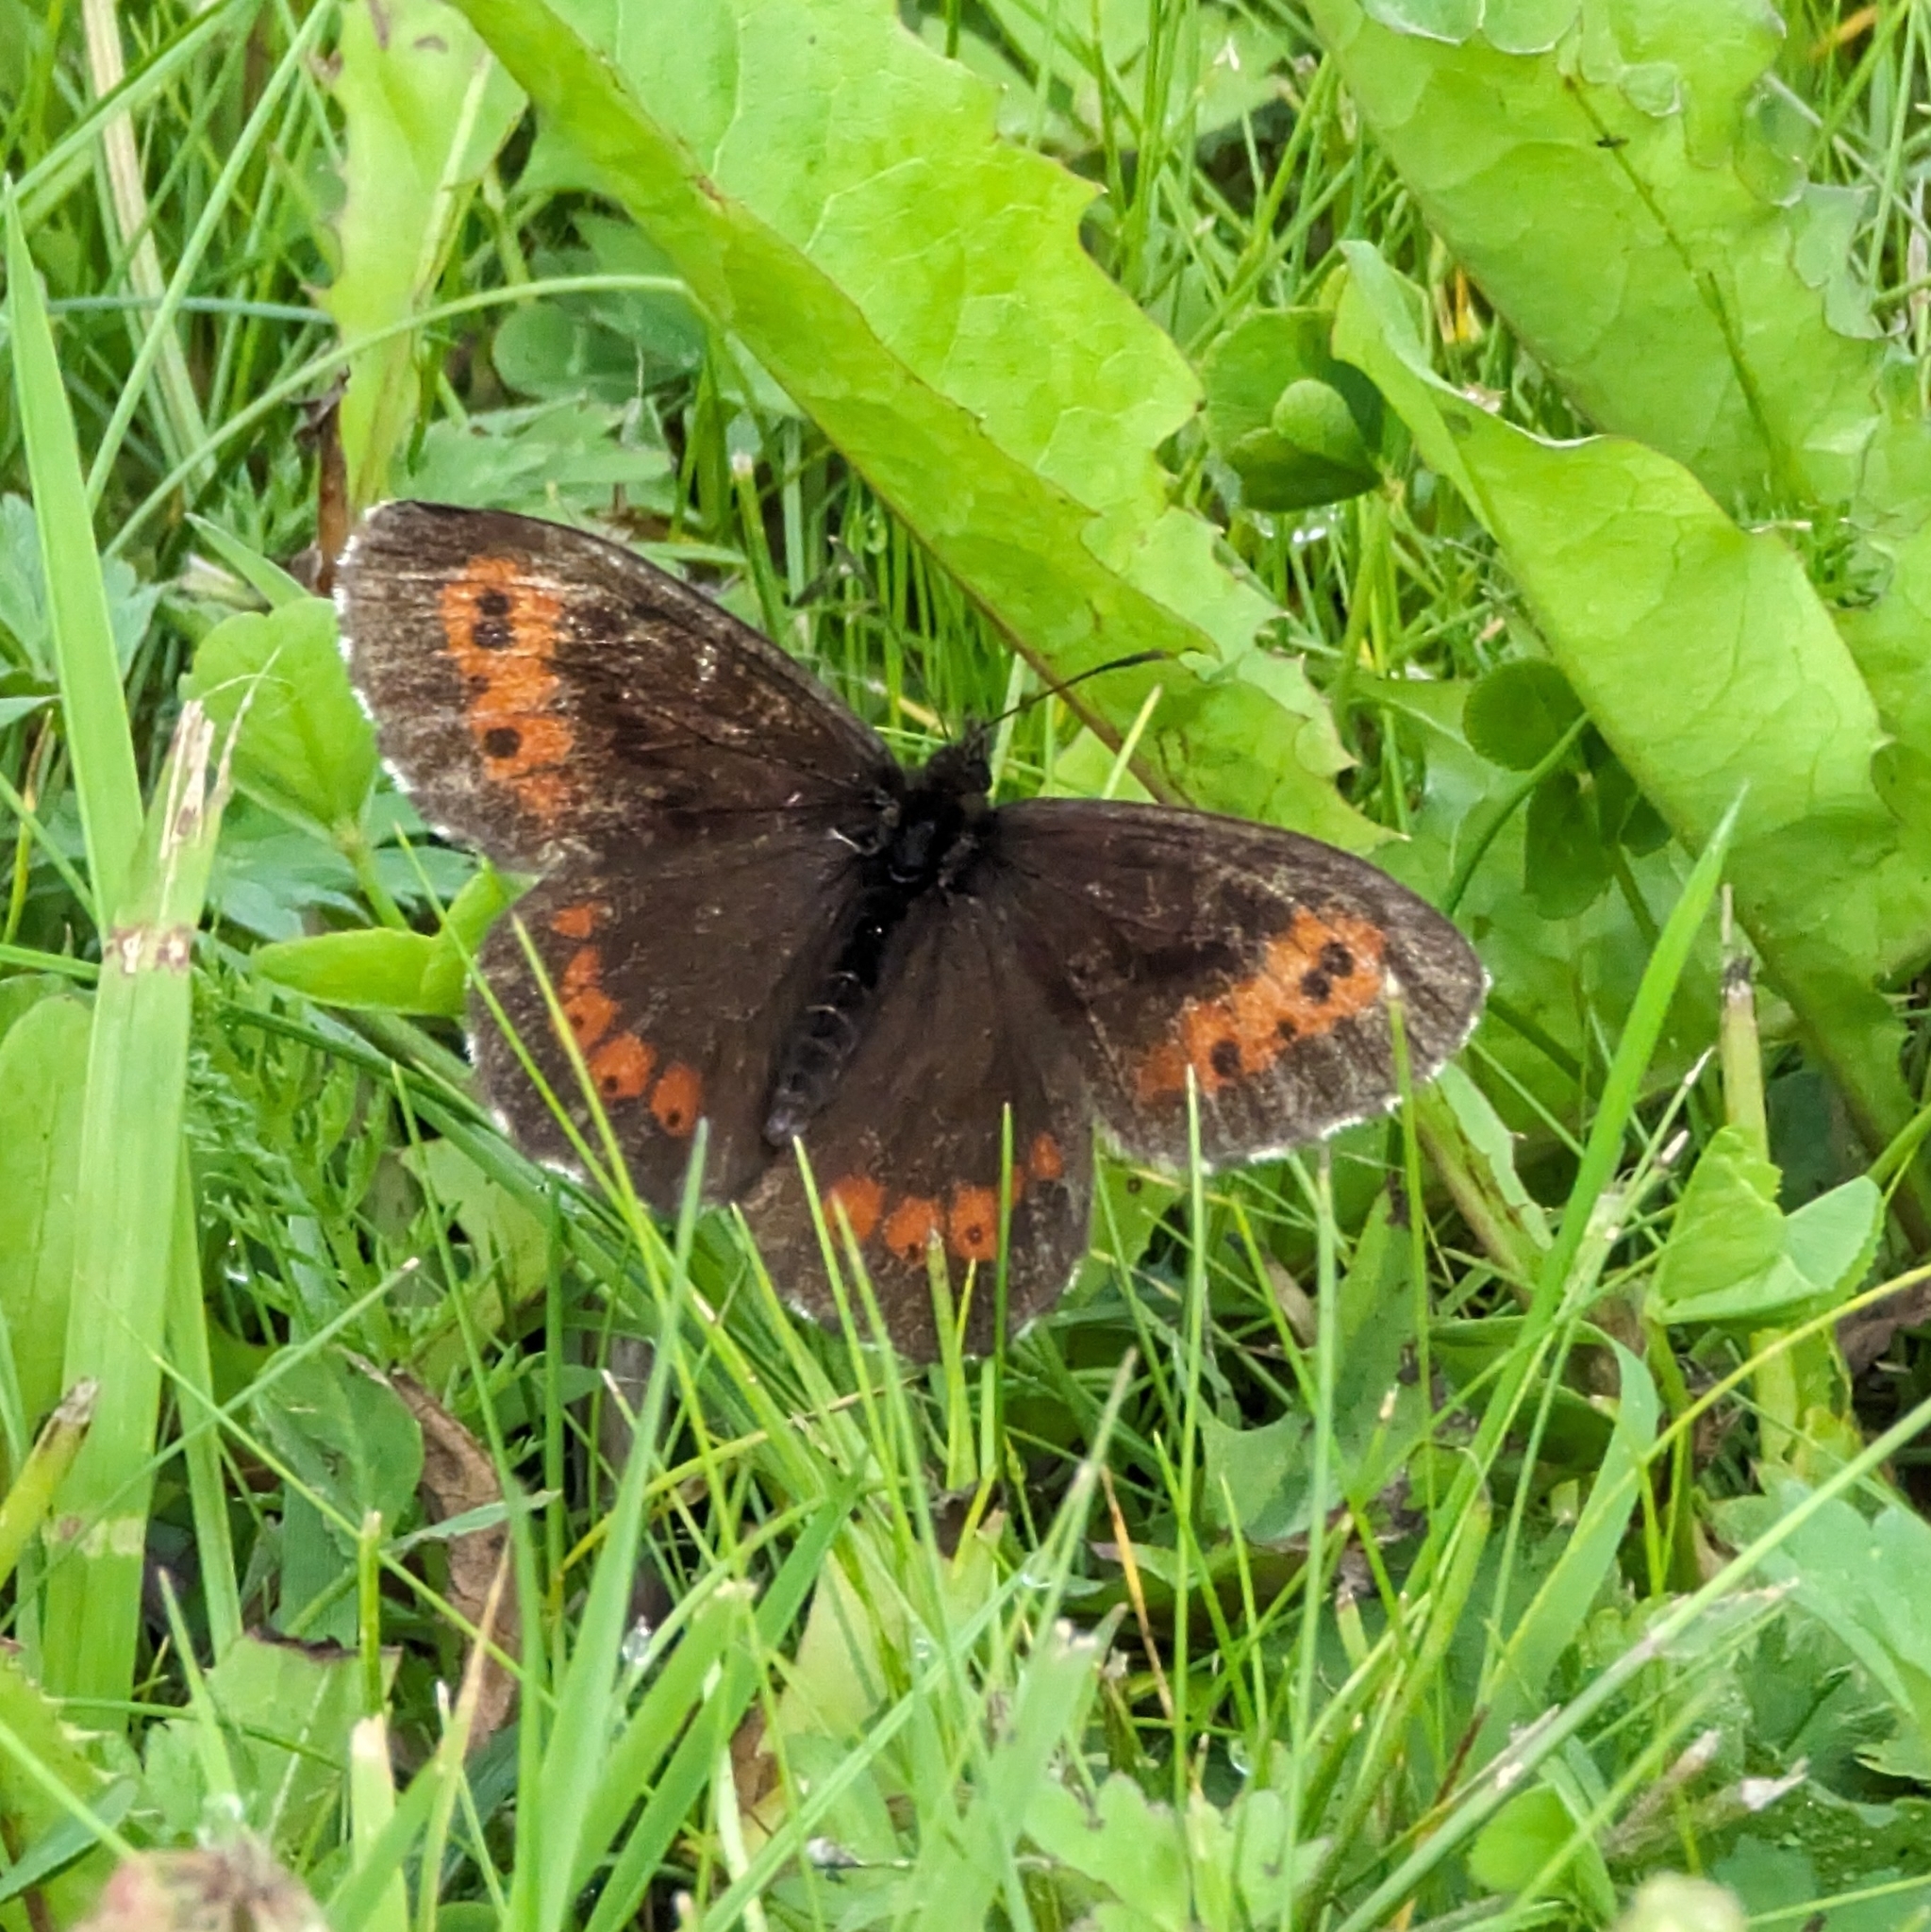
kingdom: Animalia
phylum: Arthropoda
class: Insecta
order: Lepidoptera
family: Nymphalidae
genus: Erebia
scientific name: Erebia ligea
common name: Arran brown
